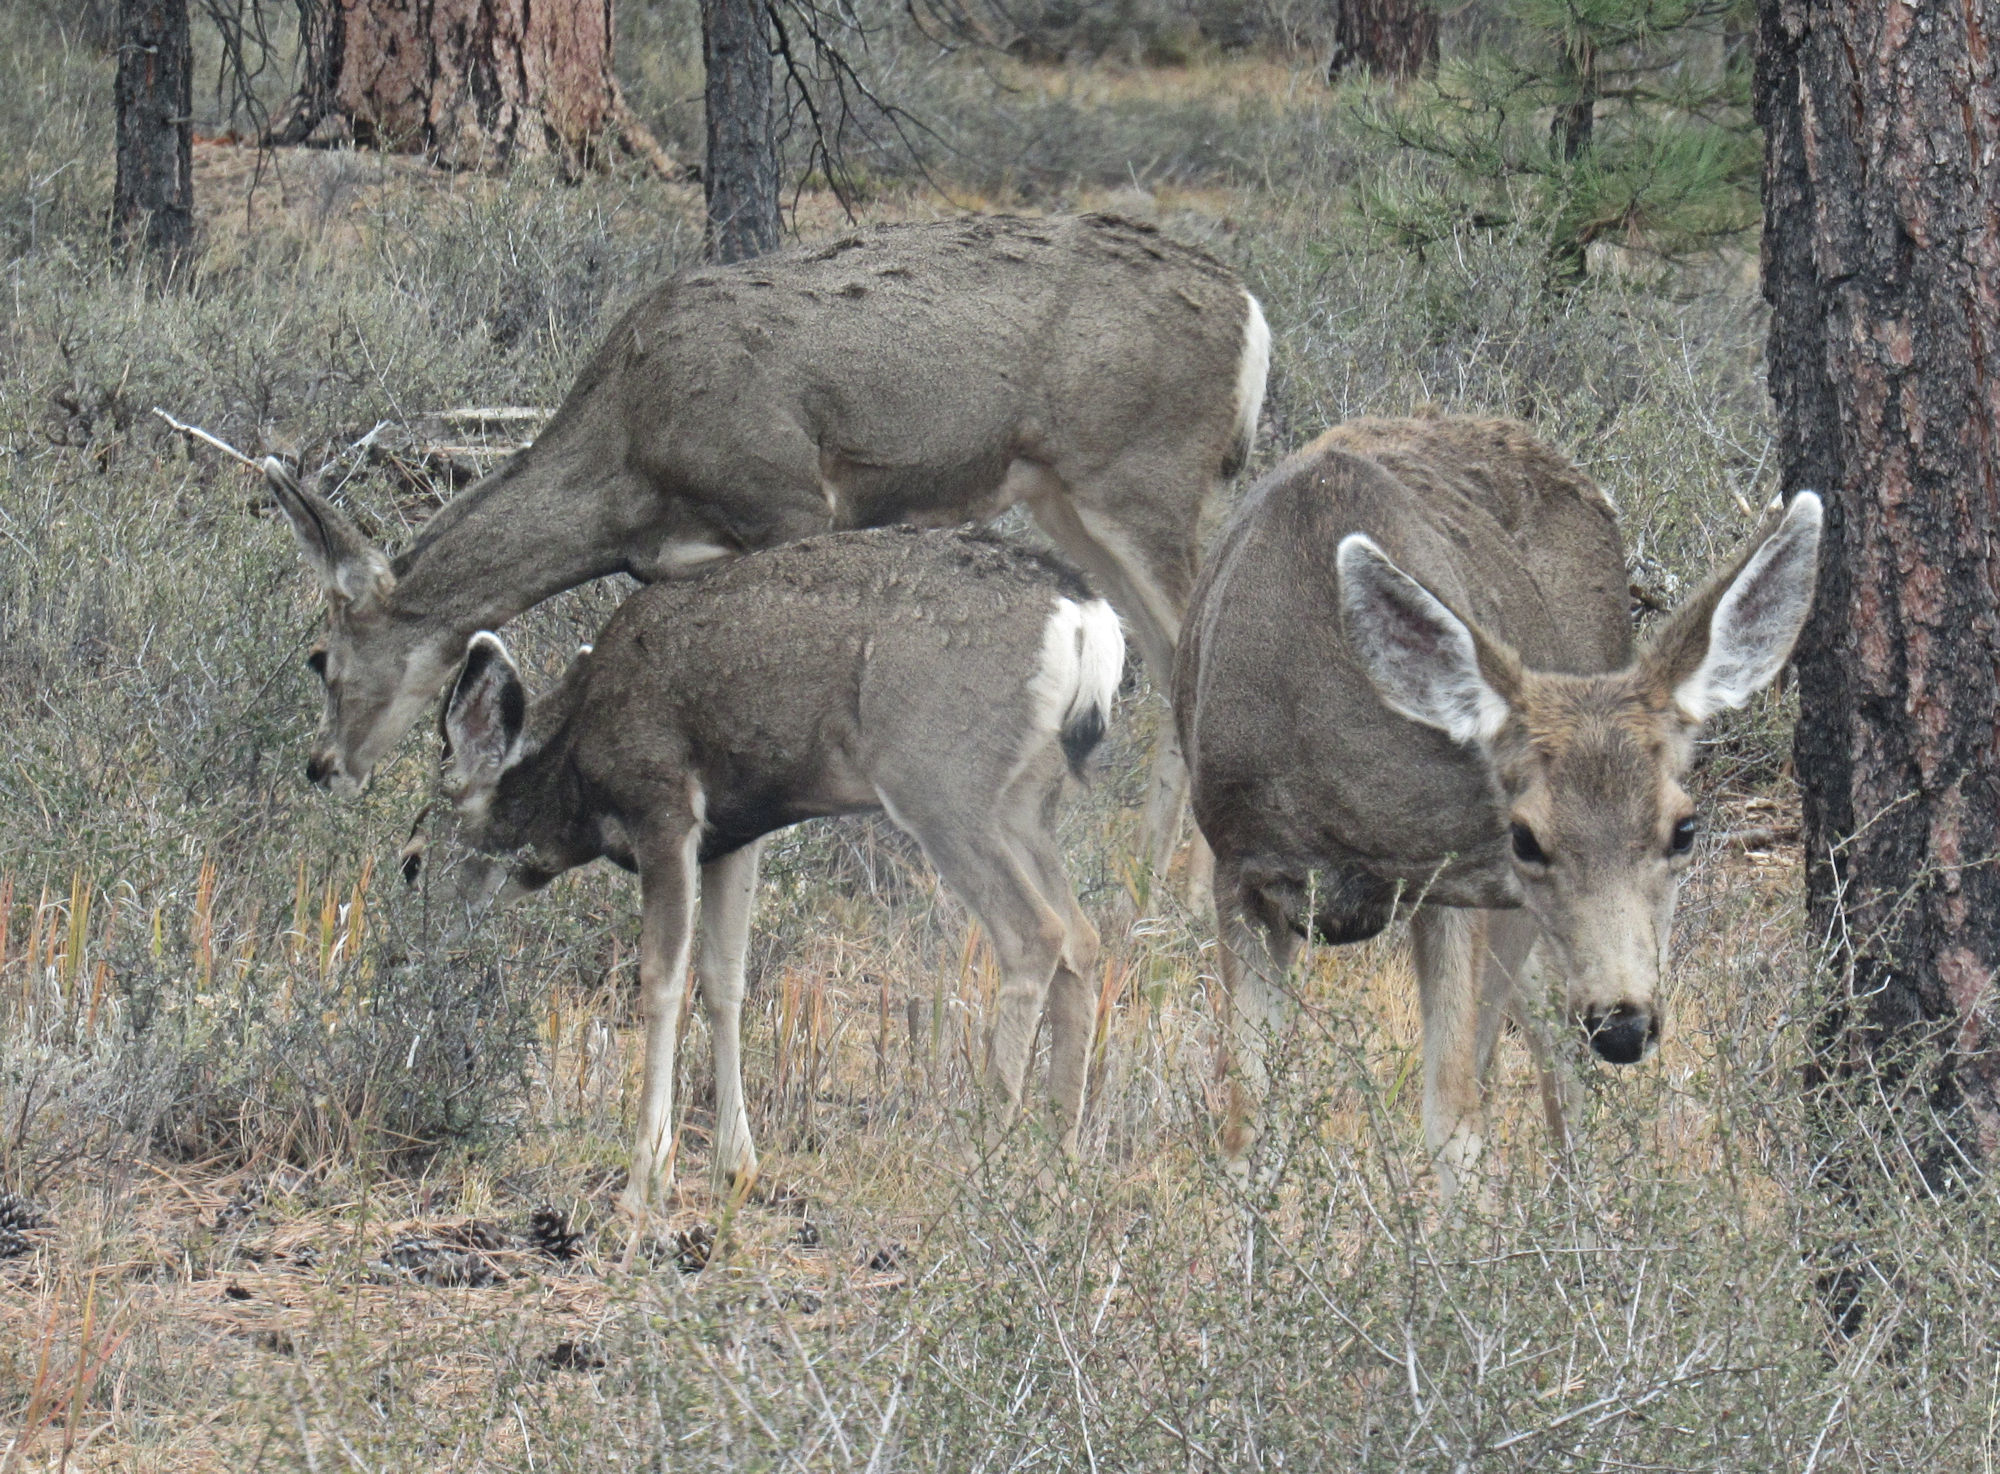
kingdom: Animalia
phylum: Chordata
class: Mammalia
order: Artiodactyla
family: Cervidae
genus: Odocoileus
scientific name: Odocoileus hemionus
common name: Mule deer
